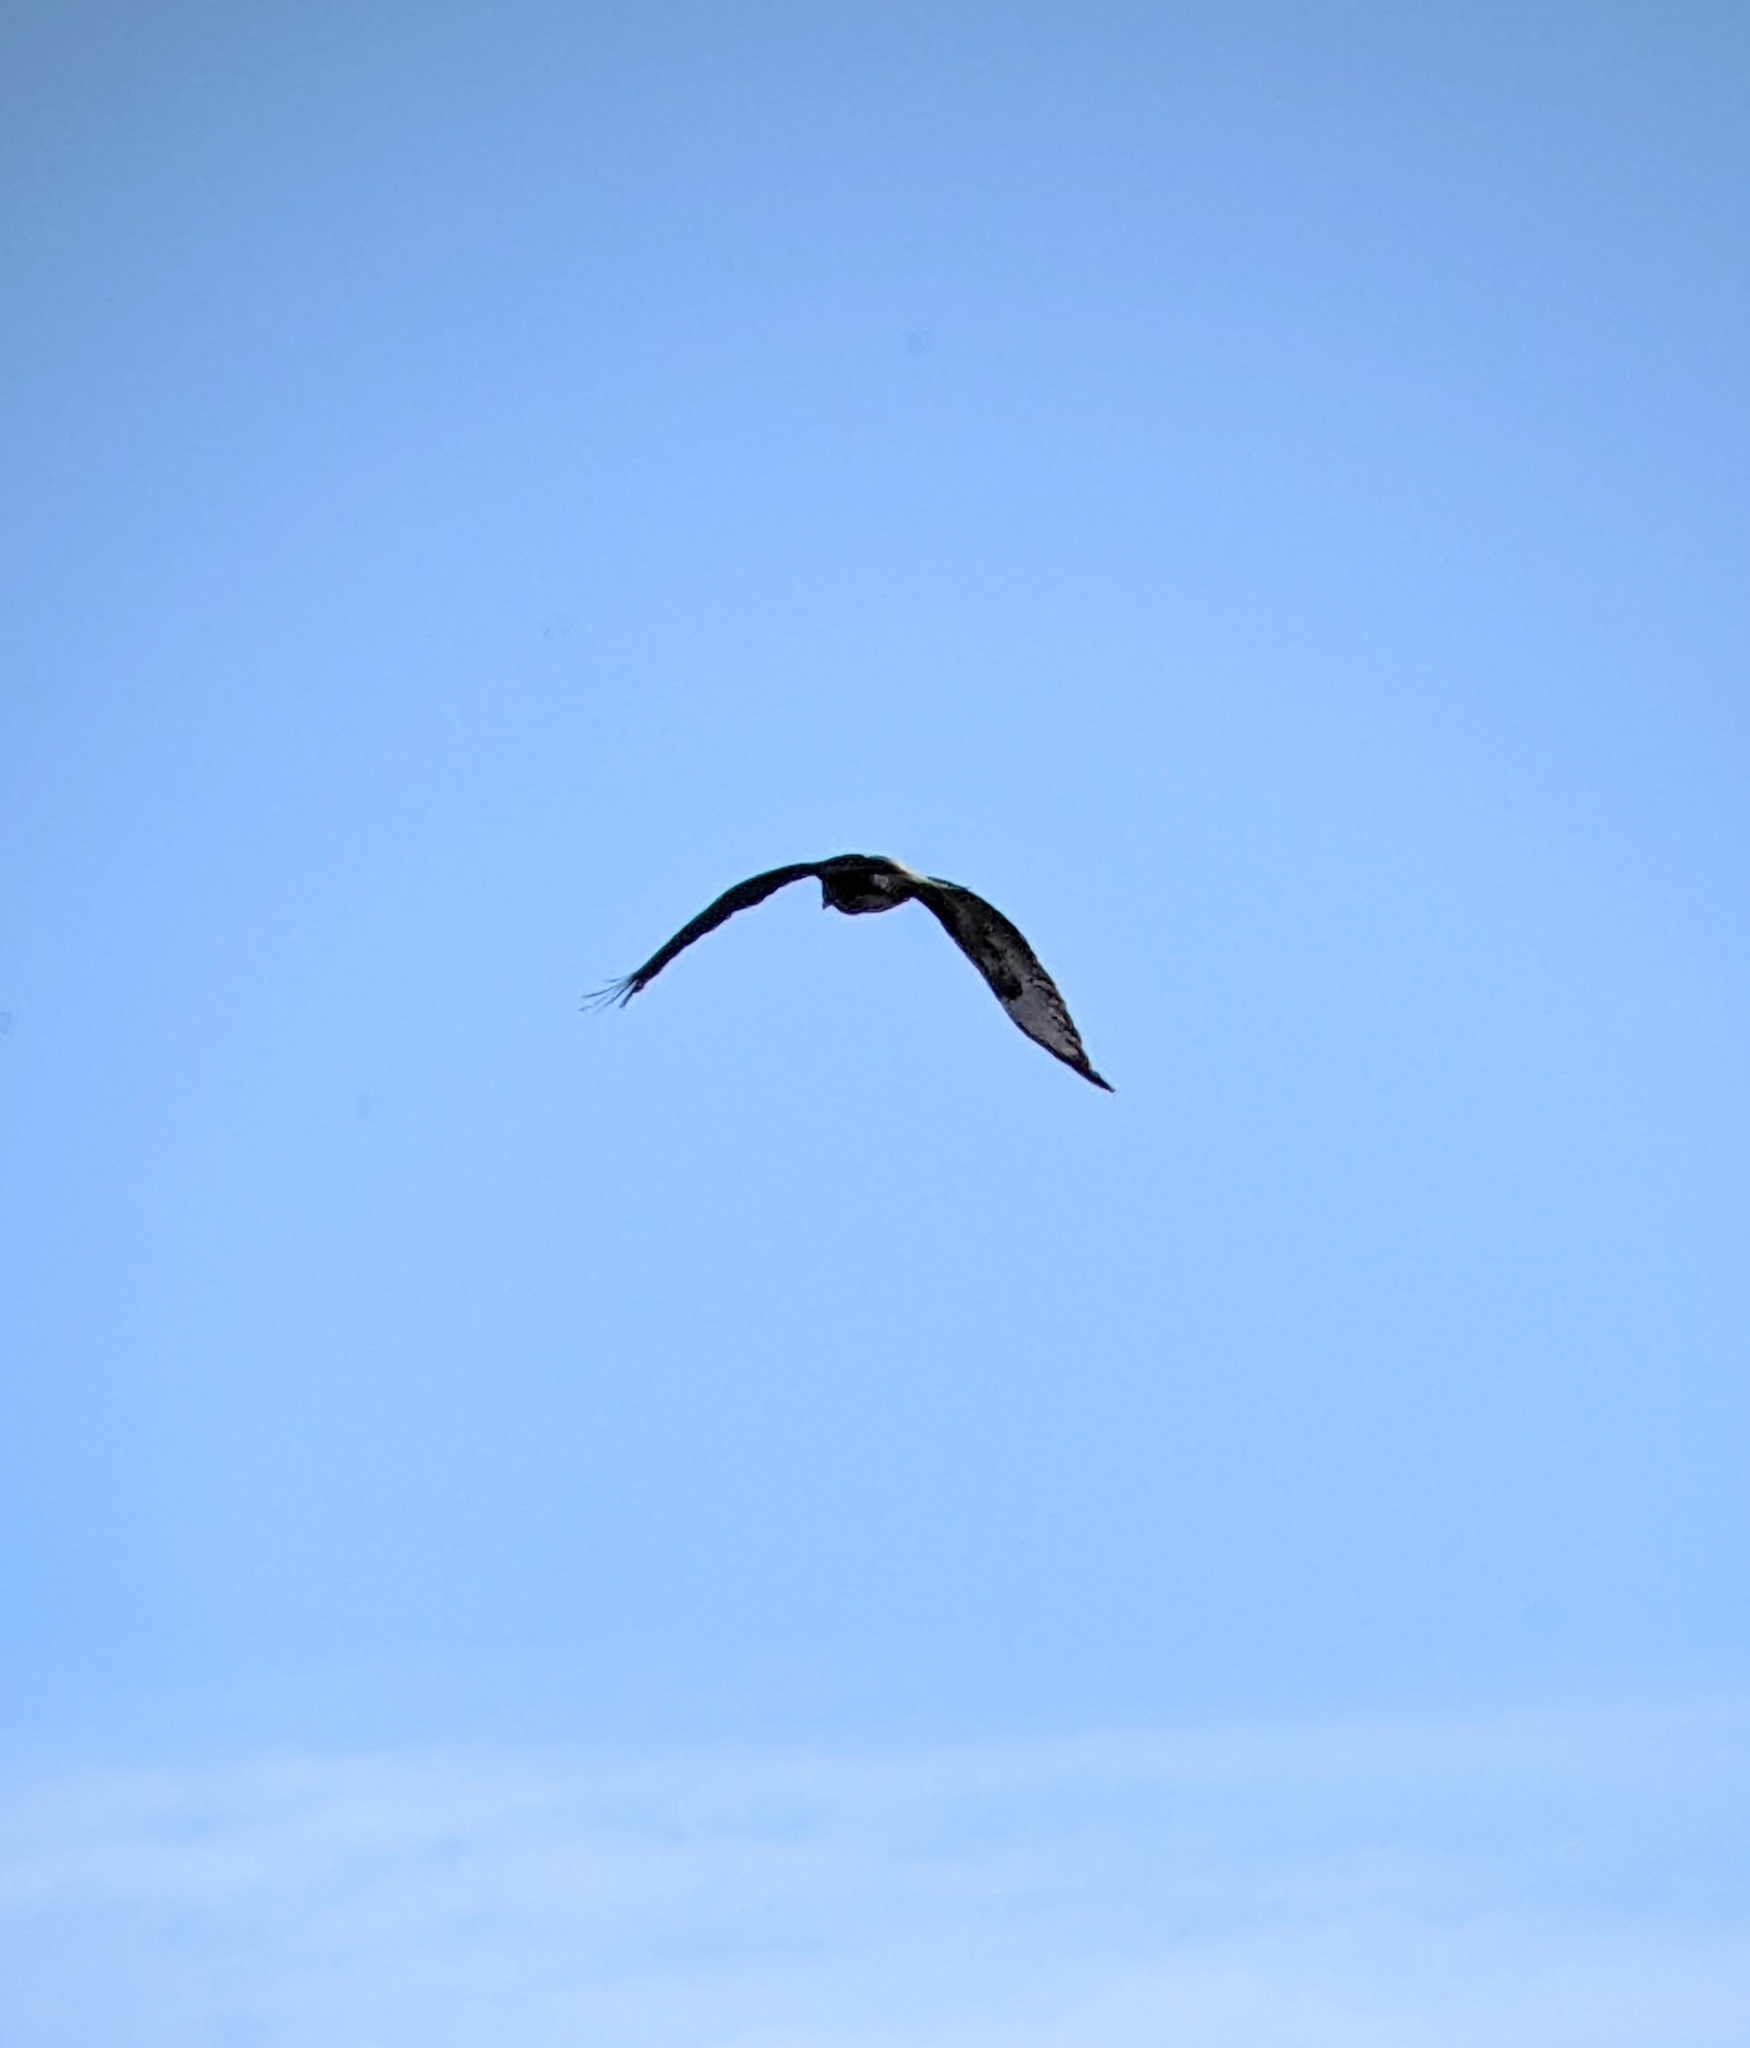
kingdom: Animalia
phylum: Chordata
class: Aves
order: Accipitriformes
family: Accipitridae
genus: Buteo
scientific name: Buteo buteo
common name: Common buzzard
